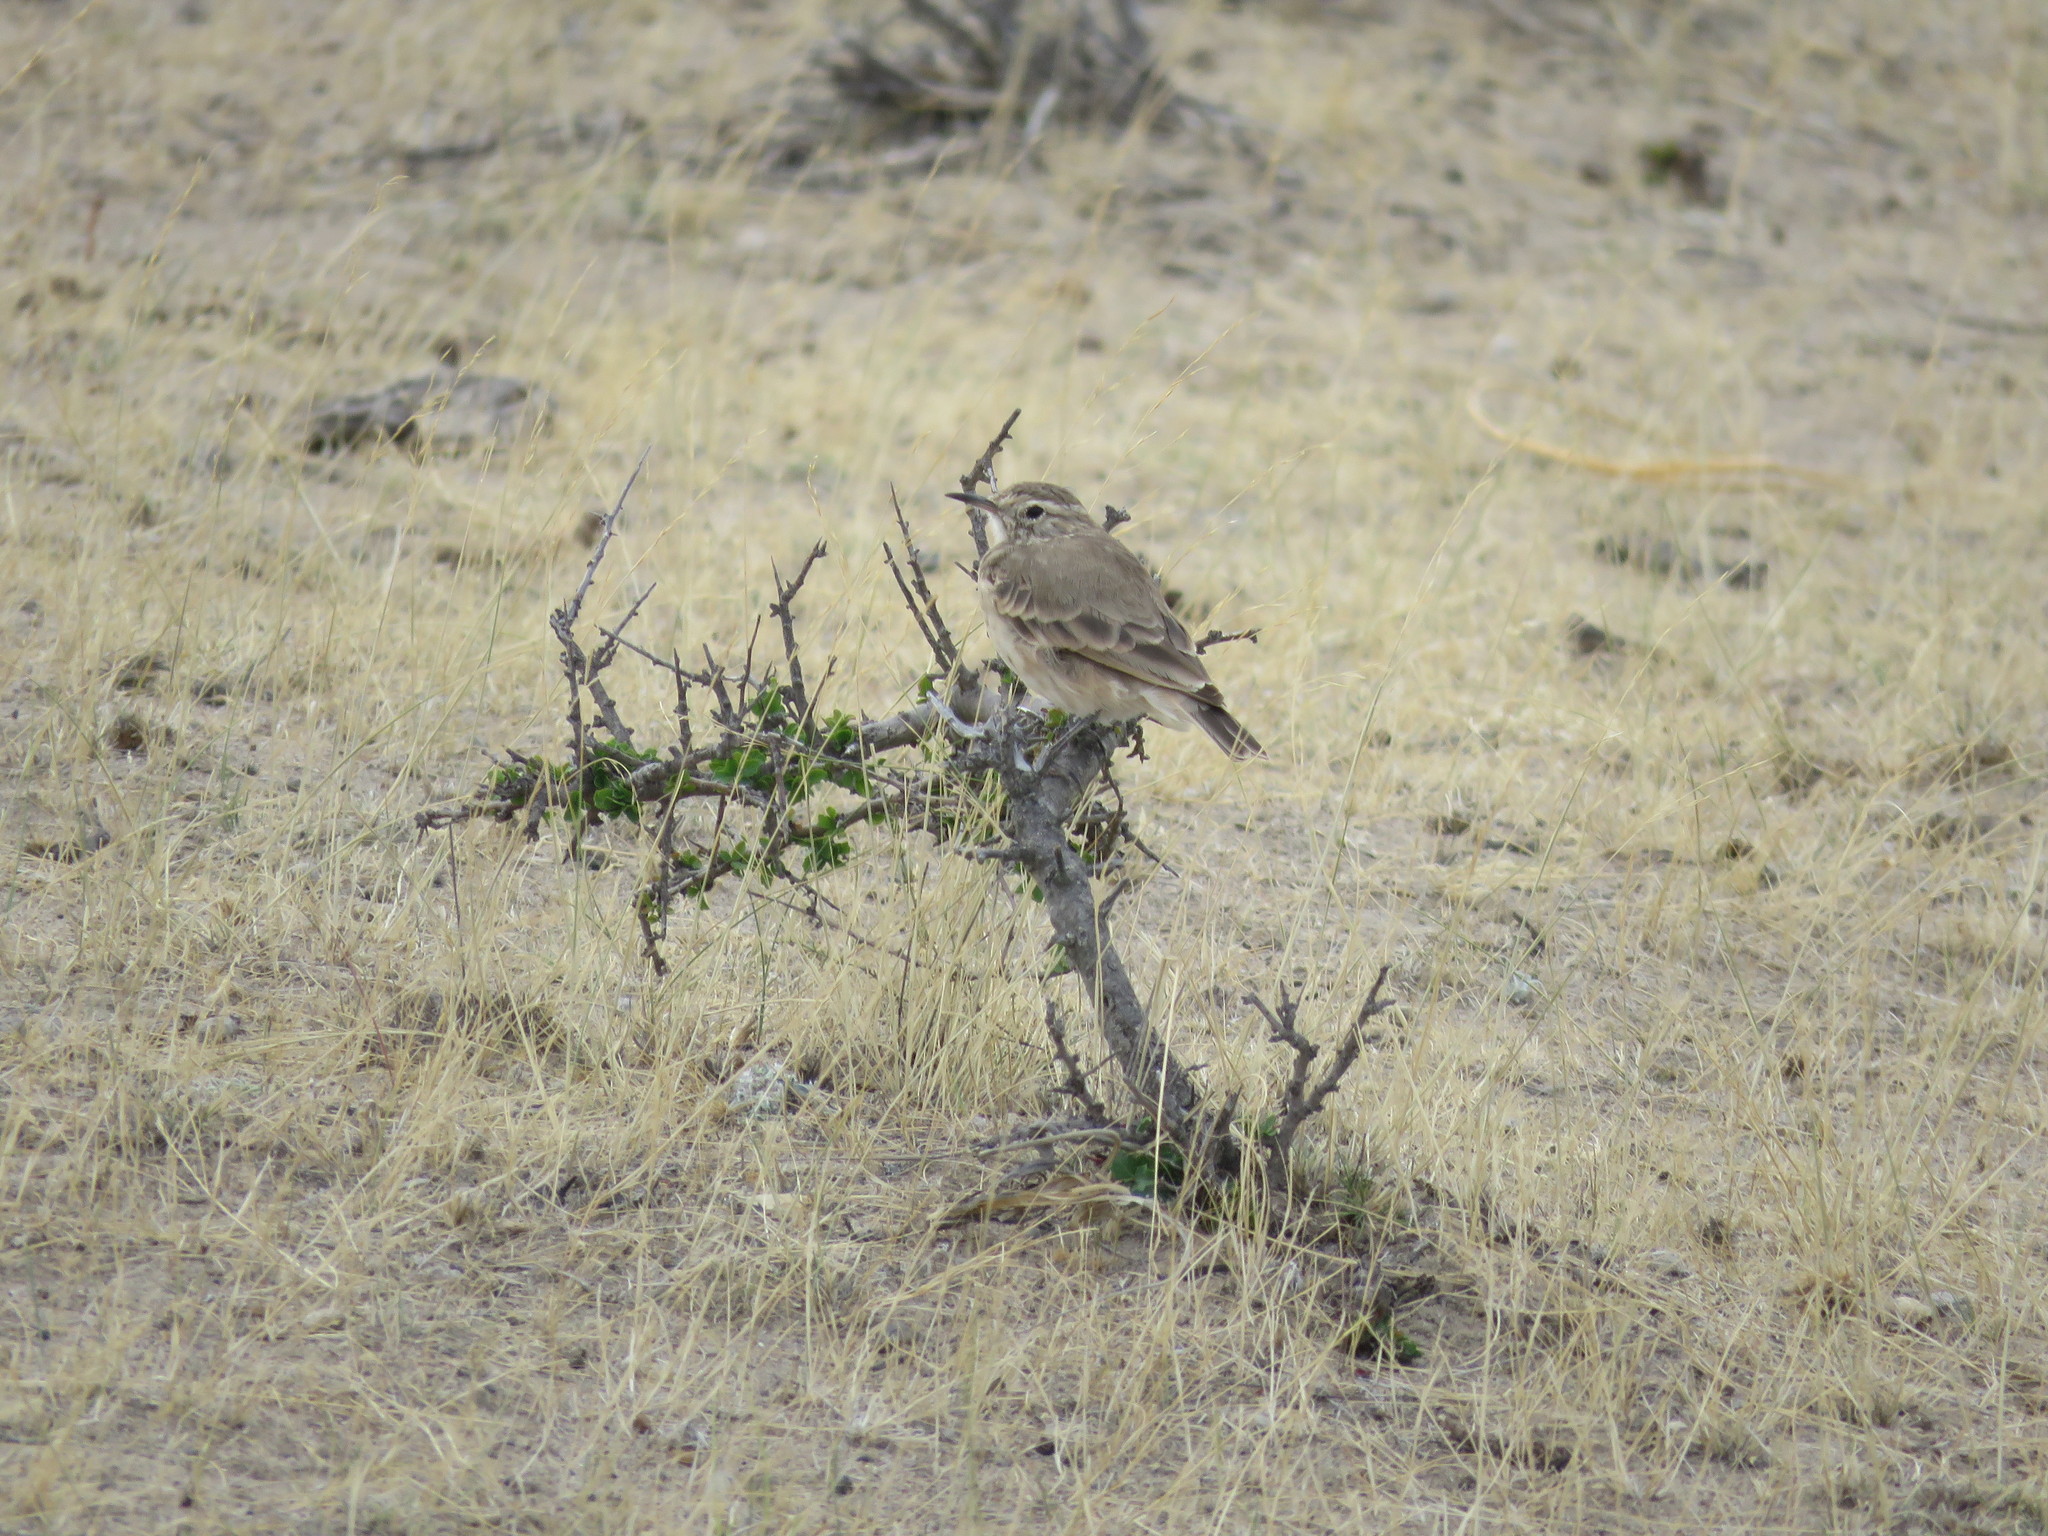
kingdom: Animalia
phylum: Chordata
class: Aves
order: Passeriformes
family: Furnariidae
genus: Geositta
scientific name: Geositta cunicularia
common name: Common miner
